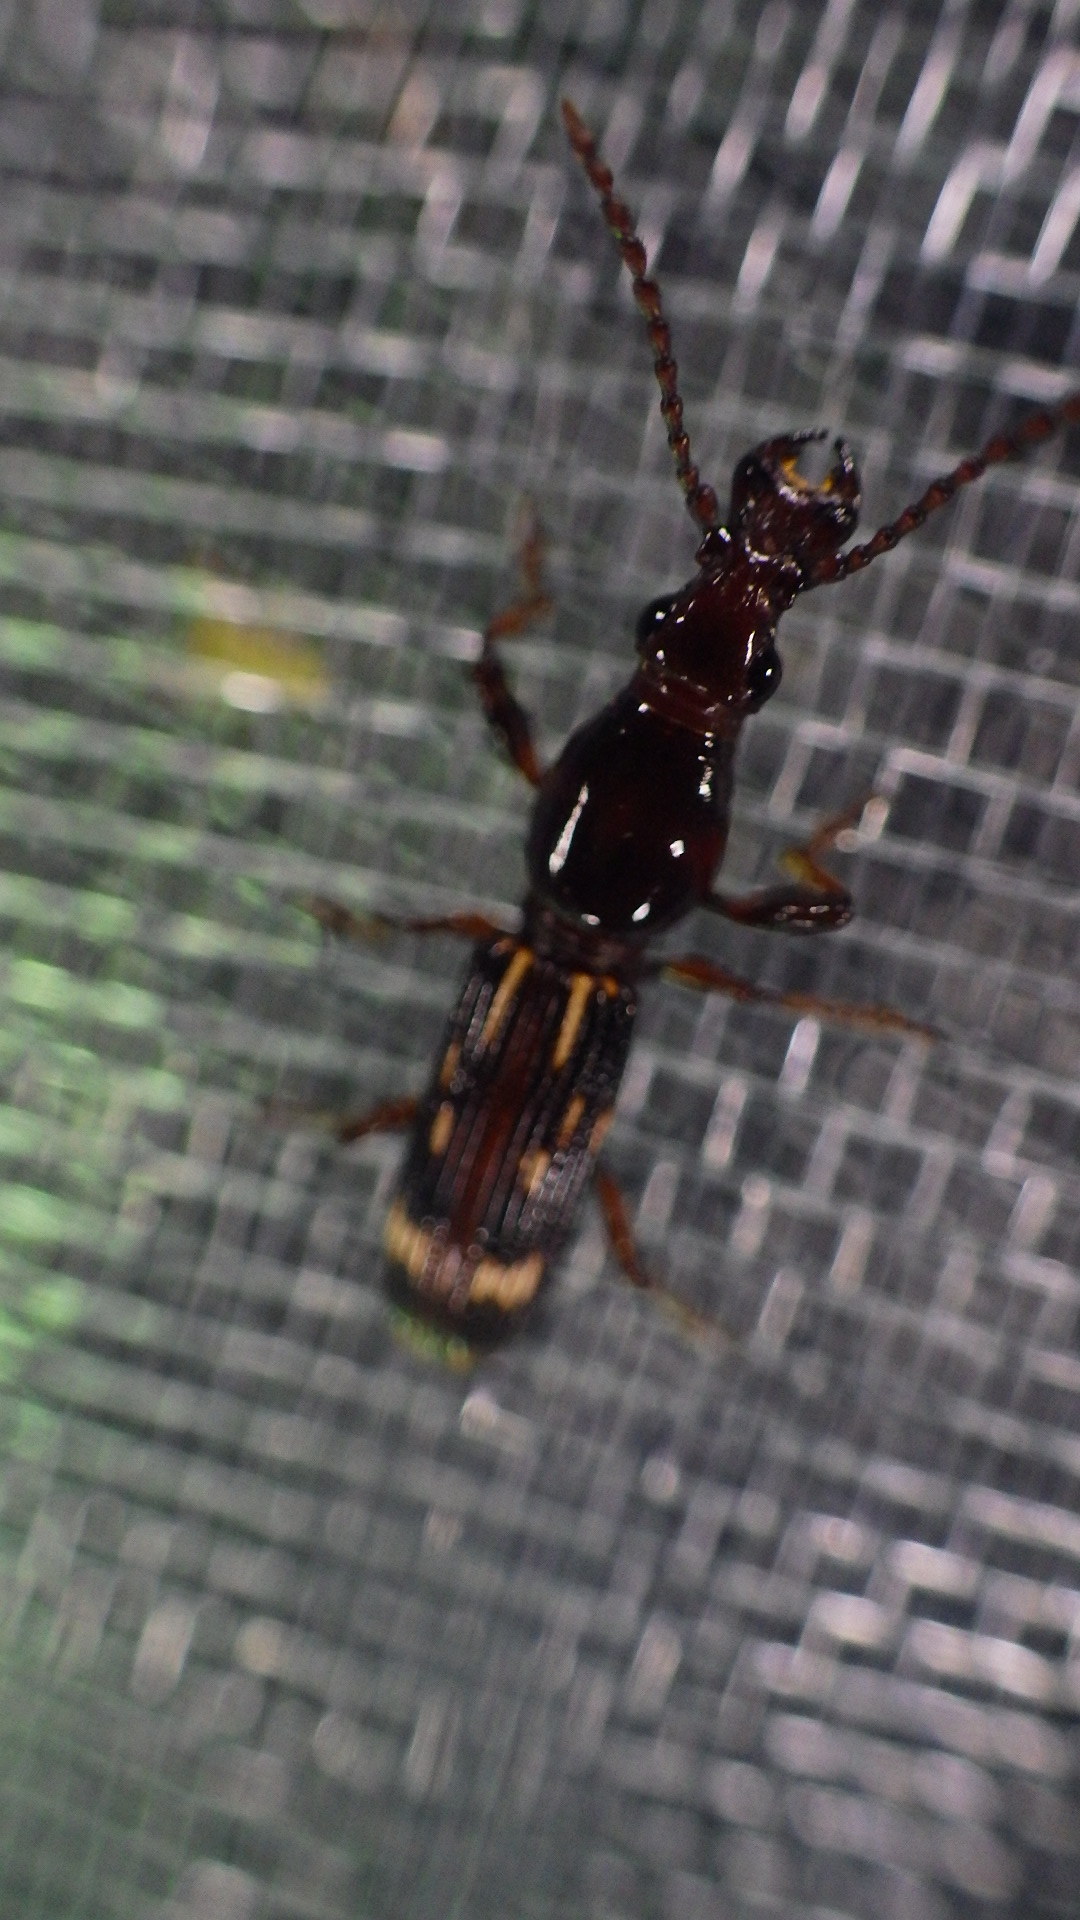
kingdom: Animalia
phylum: Arthropoda
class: Insecta
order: Coleoptera
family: Brentidae
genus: Arrenodes
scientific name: Arrenodes minutus
